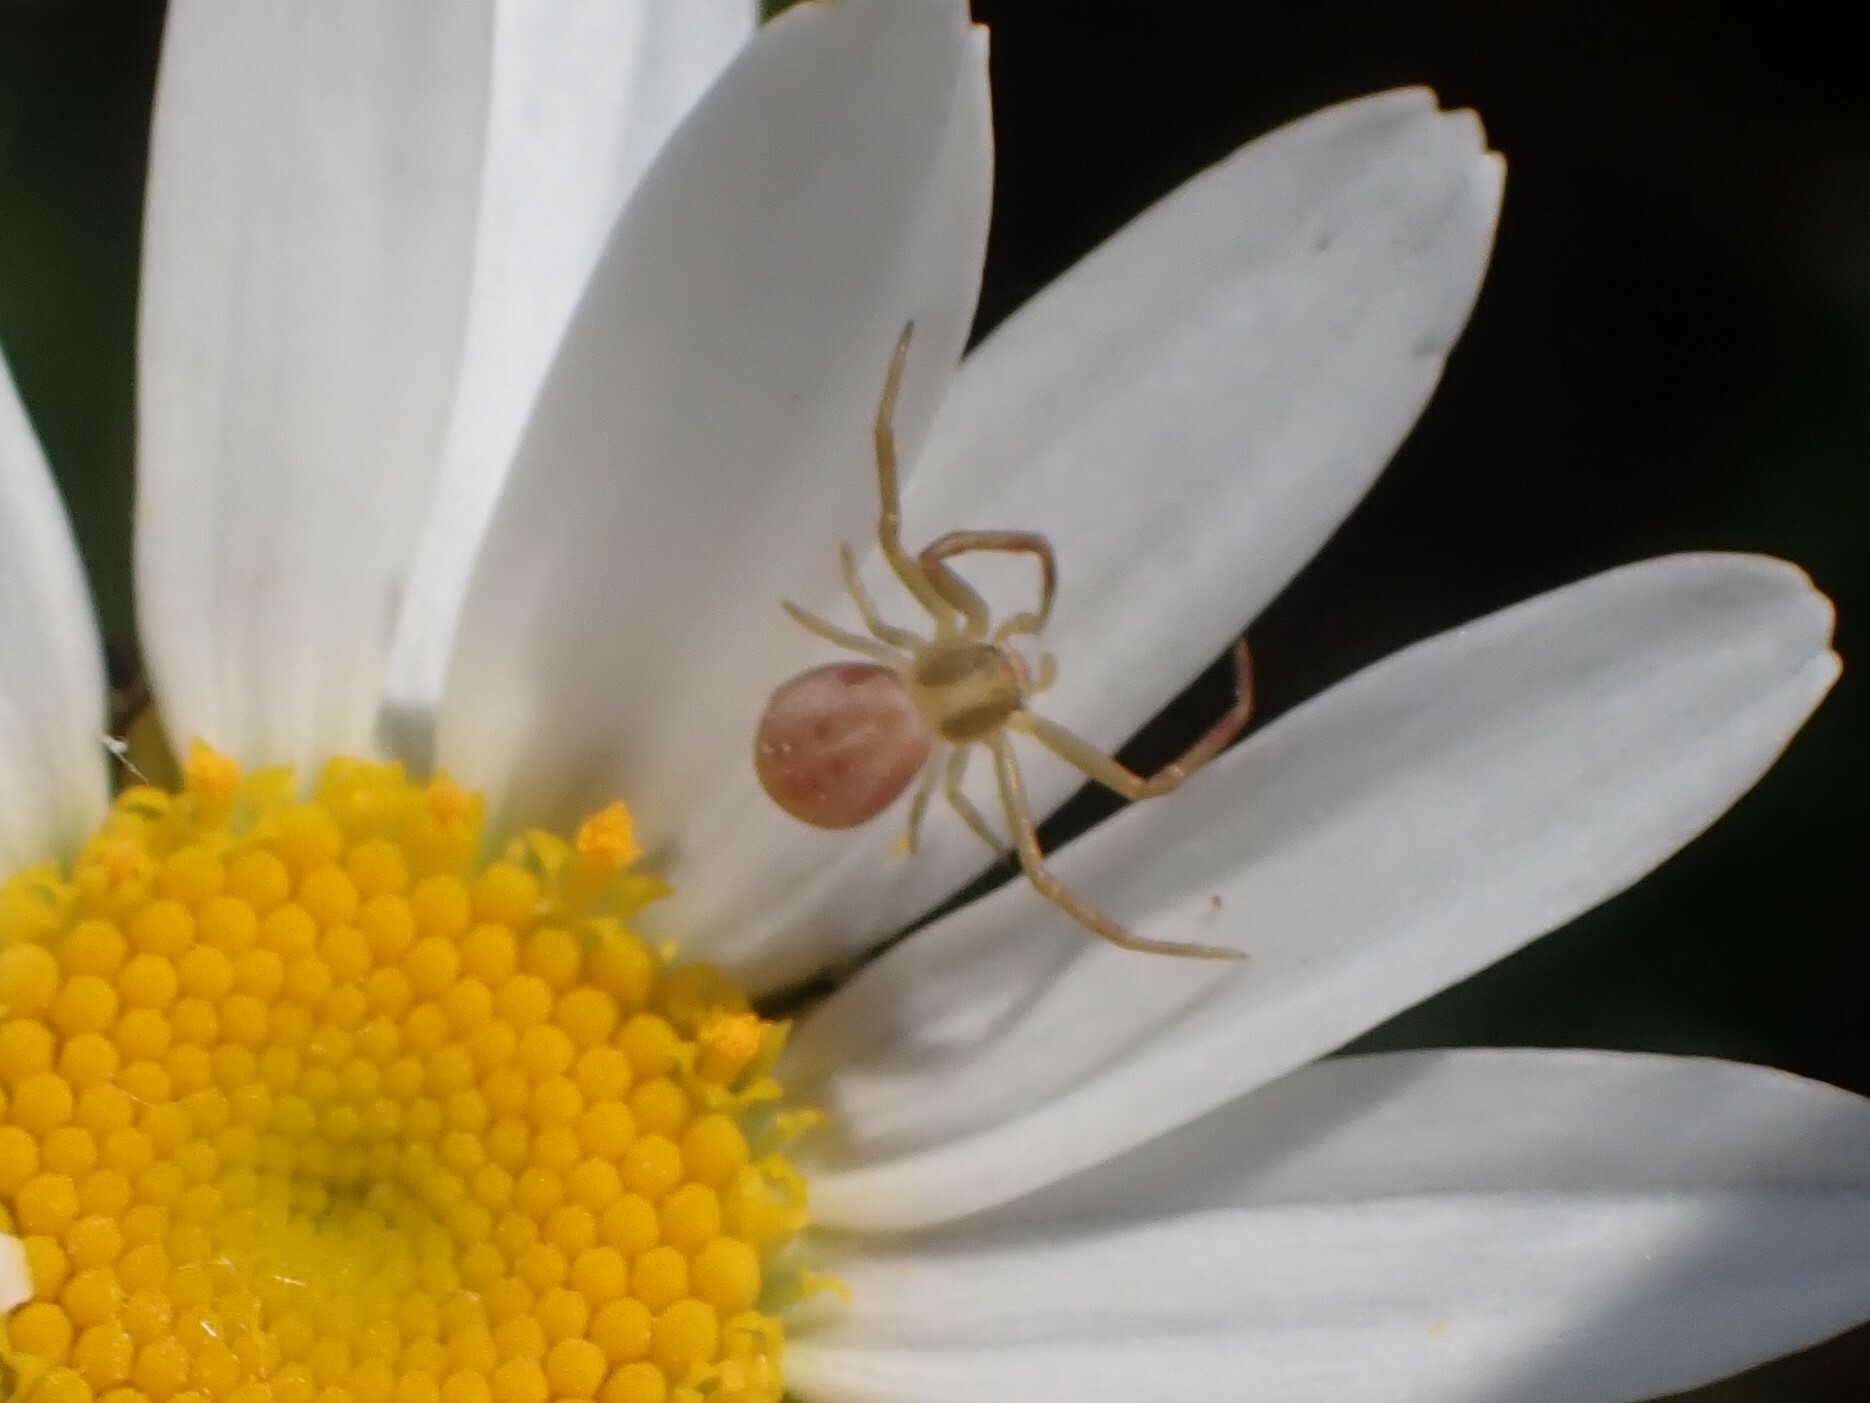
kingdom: Animalia
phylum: Arthropoda
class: Arachnida
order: Araneae
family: Thomisidae
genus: Runcinia
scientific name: Runcinia grammica
